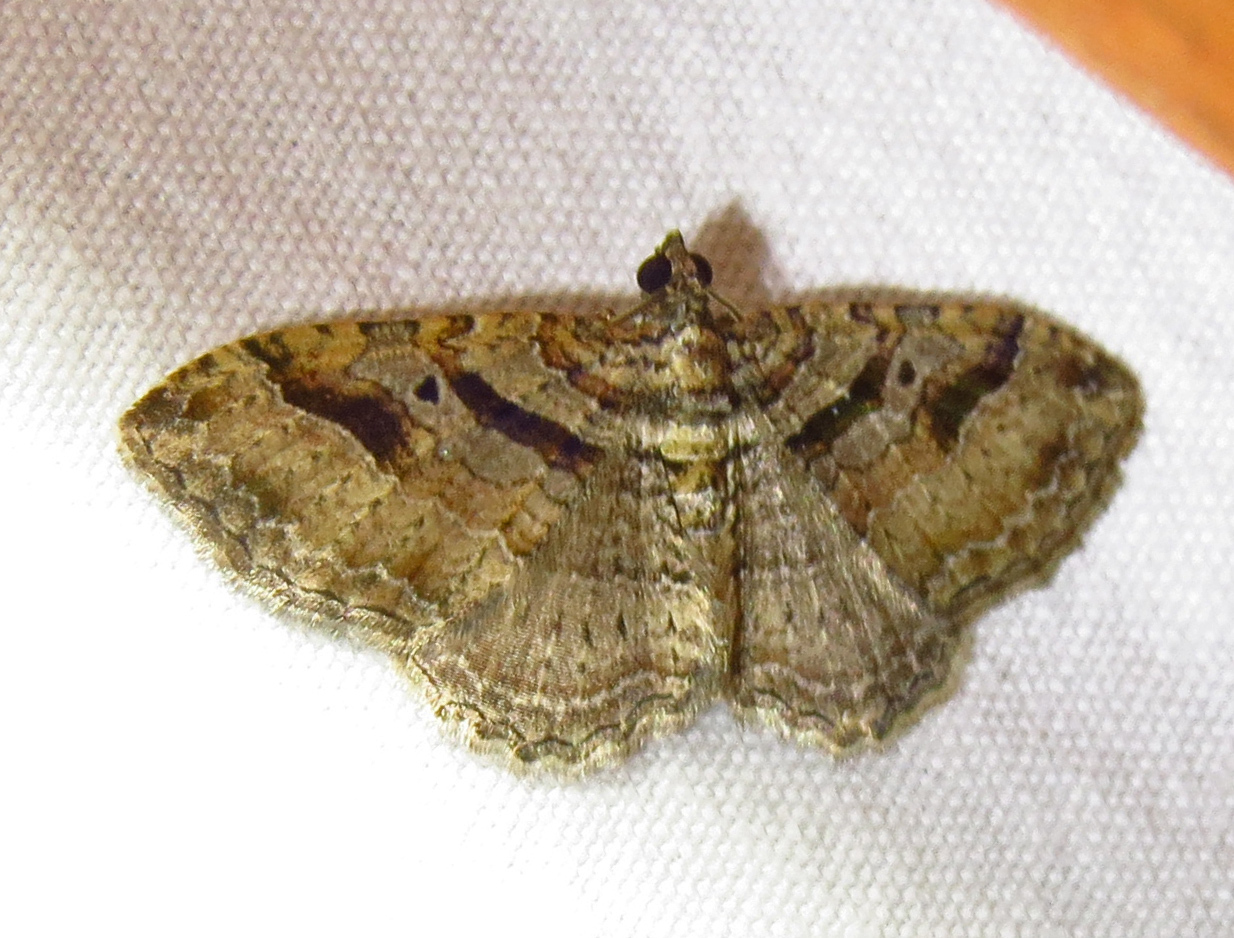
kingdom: Animalia
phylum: Arthropoda
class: Insecta
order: Lepidoptera
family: Geometridae
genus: Costaconvexa
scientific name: Costaconvexa centrostrigaria
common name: Bent-line carpet
